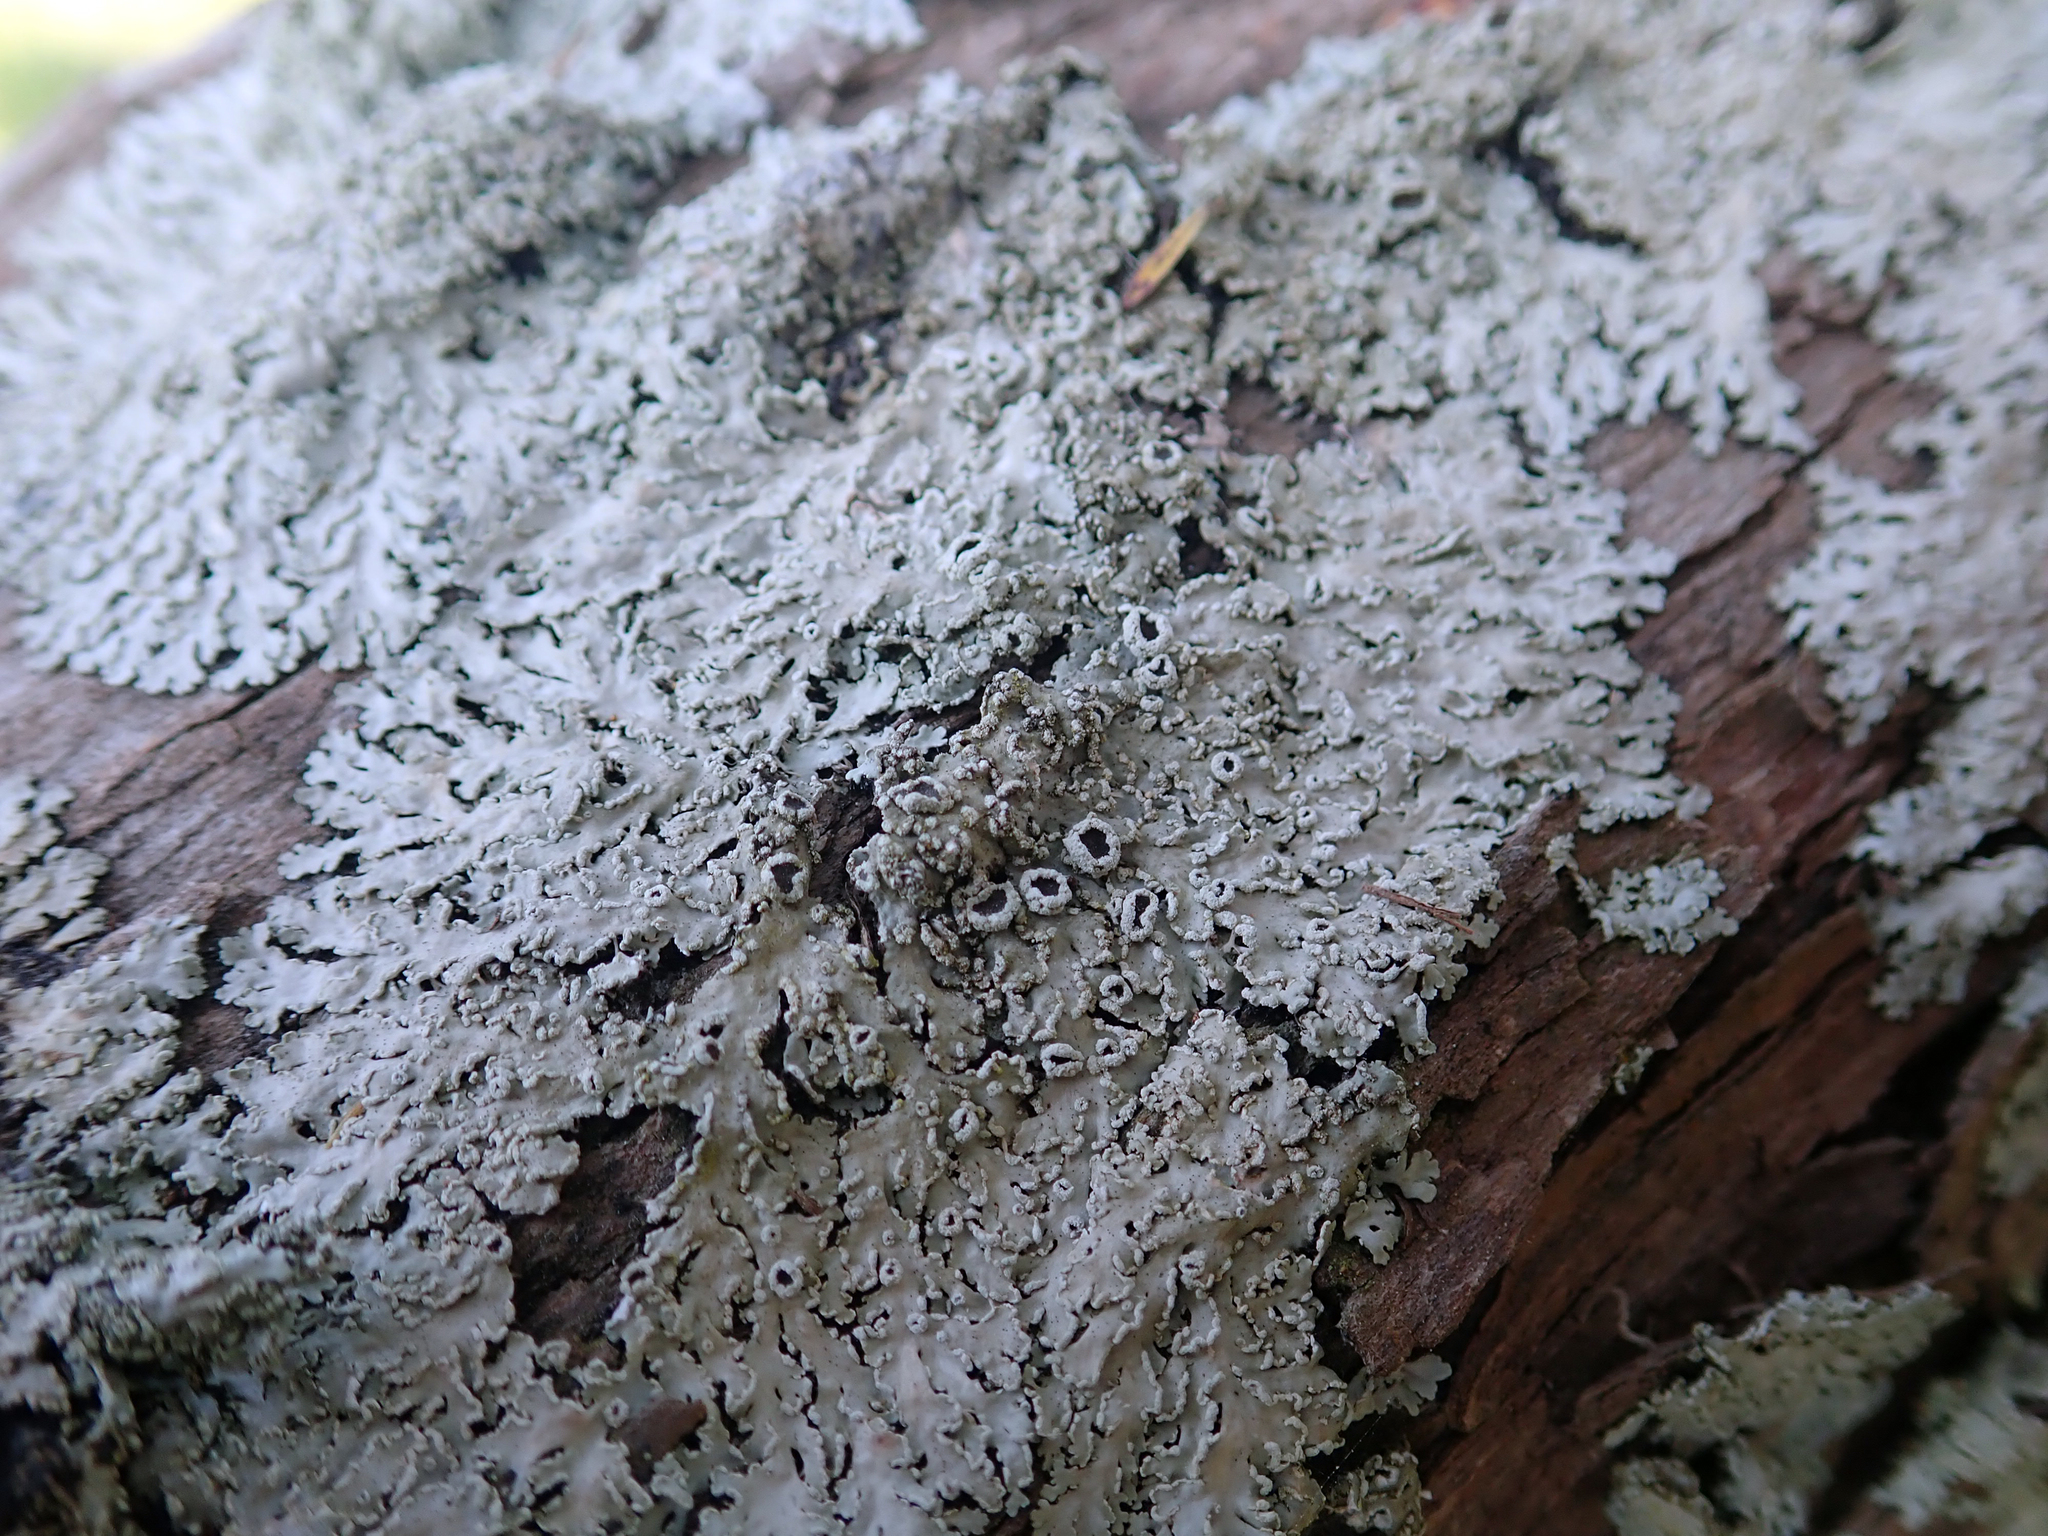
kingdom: Fungi
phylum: Ascomycota
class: Lecanoromycetes
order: Caliciales
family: Physciaceae
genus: Heterodermia
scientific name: Heterodermia speciosa
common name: Powdered fringe lichen
